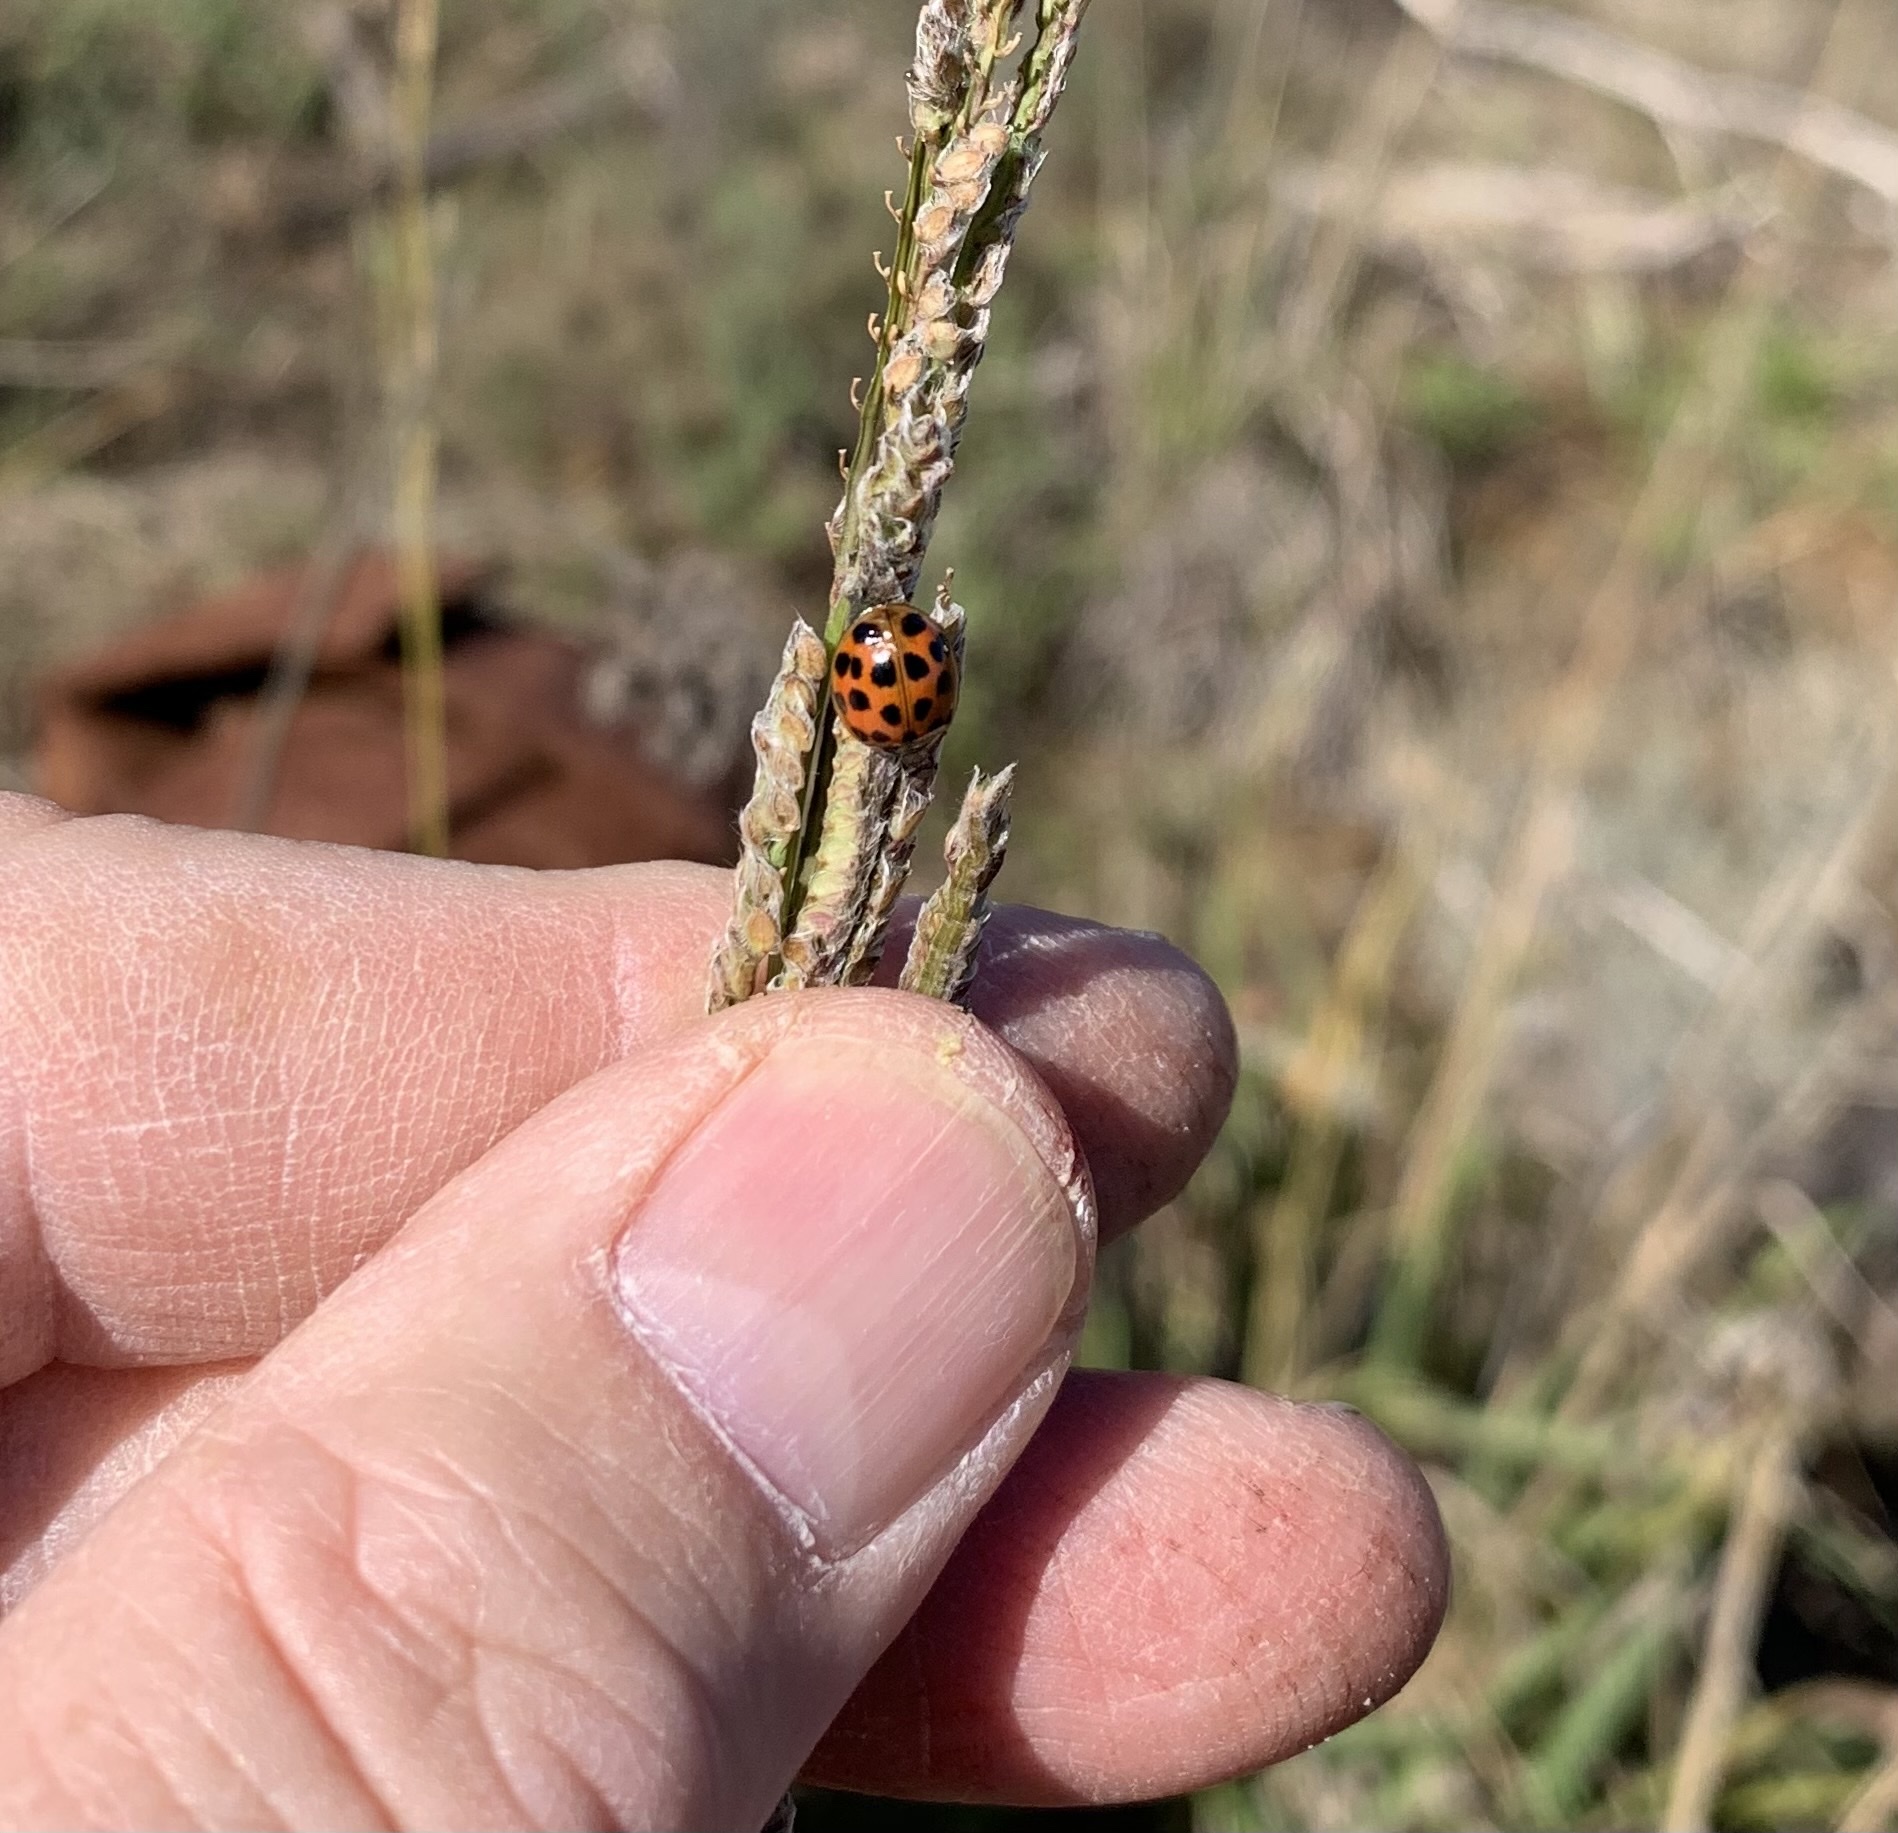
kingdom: Animalia
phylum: Arthropoda
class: Insecta
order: Coleoptera
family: Coccinellidae
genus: Harmonia
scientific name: Harmonia axyridis
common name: Harlequin ladybird
